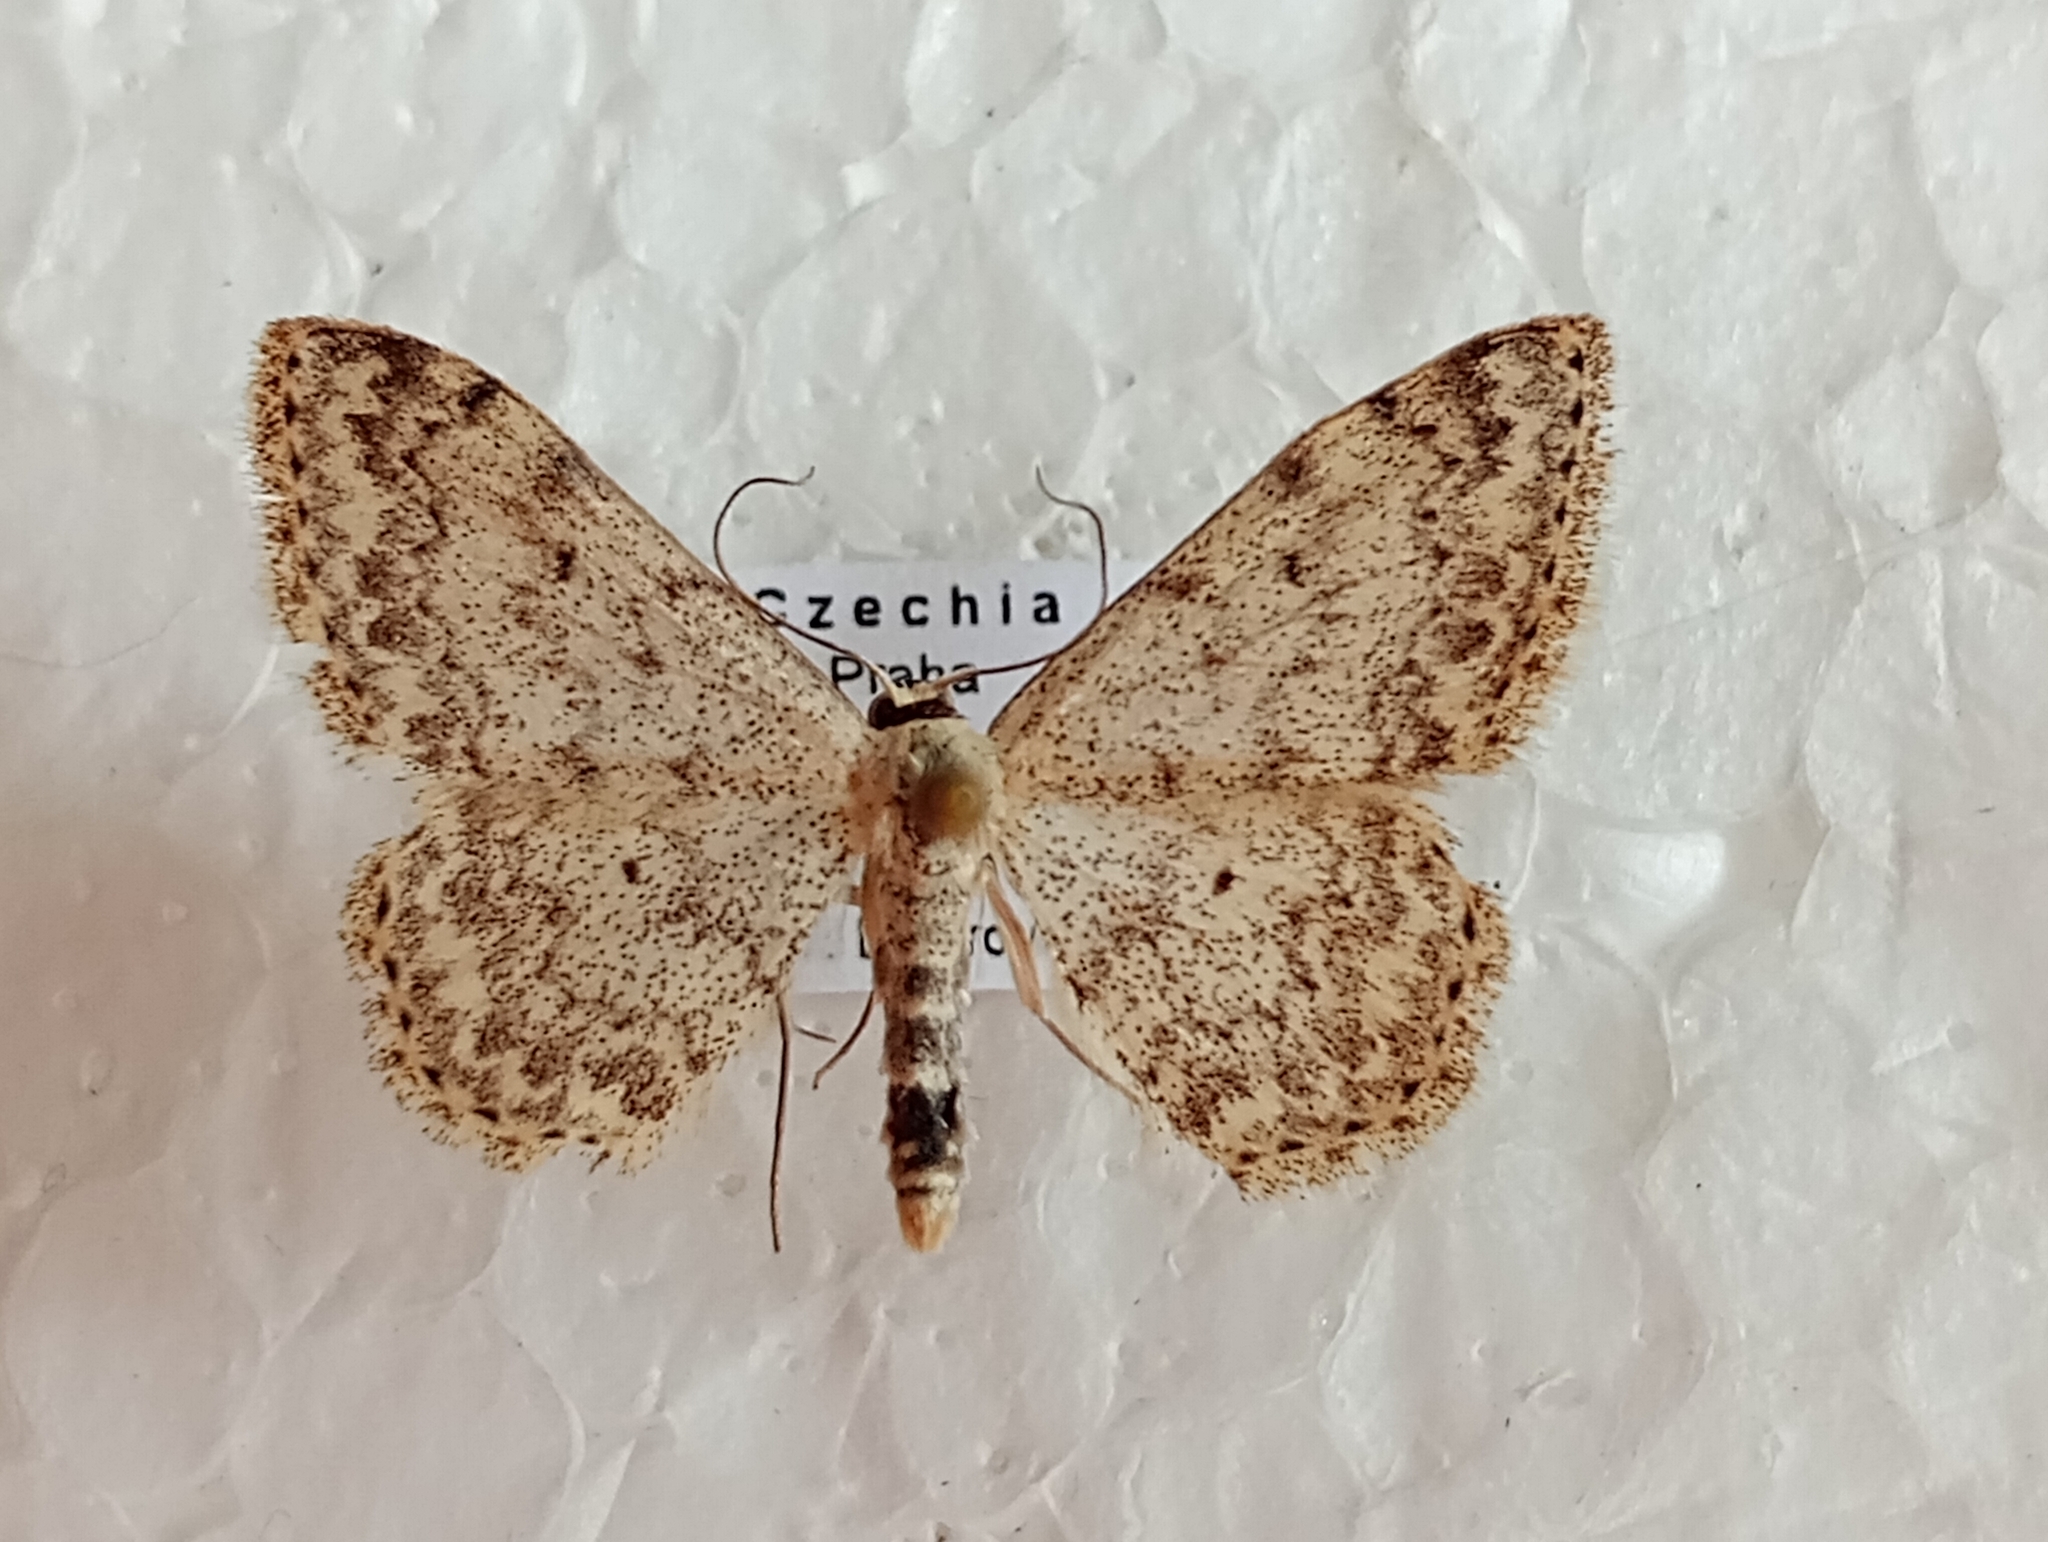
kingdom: Animalia
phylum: Arthropoda
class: Insecta
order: Lepidoptera
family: Geometridae
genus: Scopula
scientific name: Scopula marginepunctata
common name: Mullein wave
